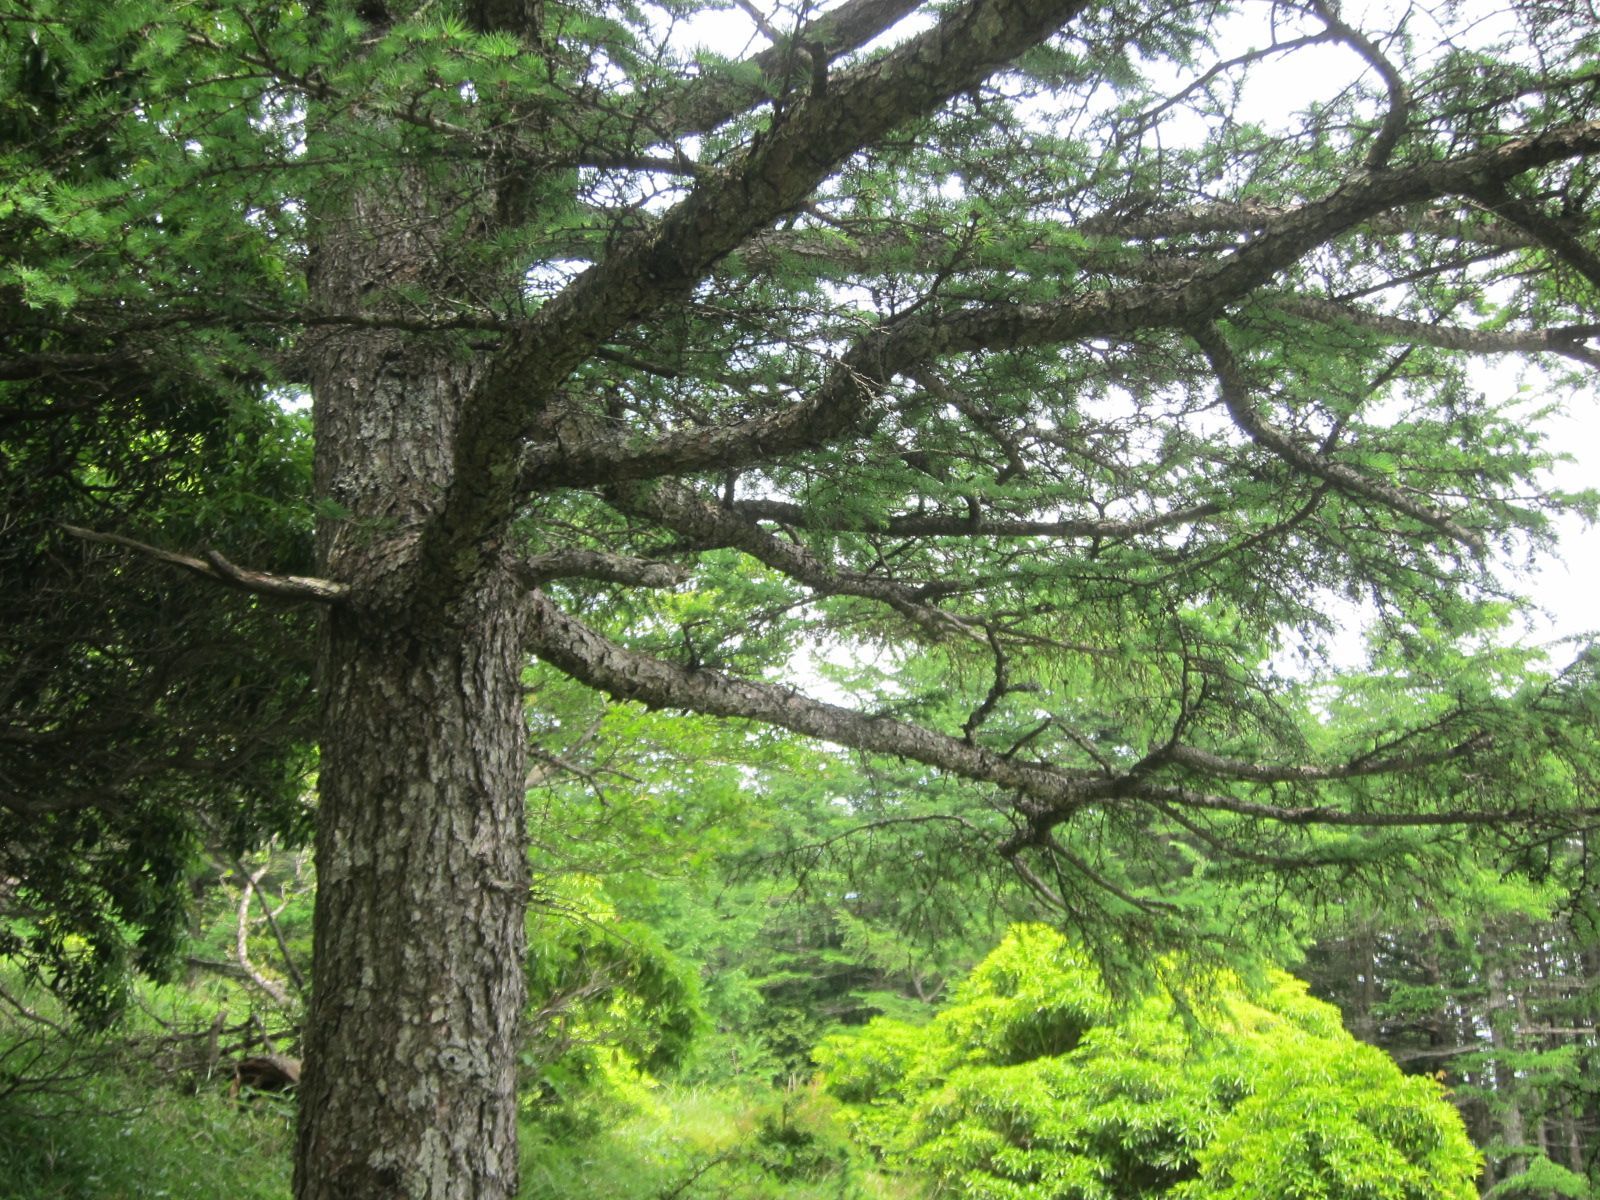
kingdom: Plantae
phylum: Tracheophyta
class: Pinopsida
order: Pinales
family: Pinaceae
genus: Larix
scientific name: Larix kaempferi
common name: Japanese larch
